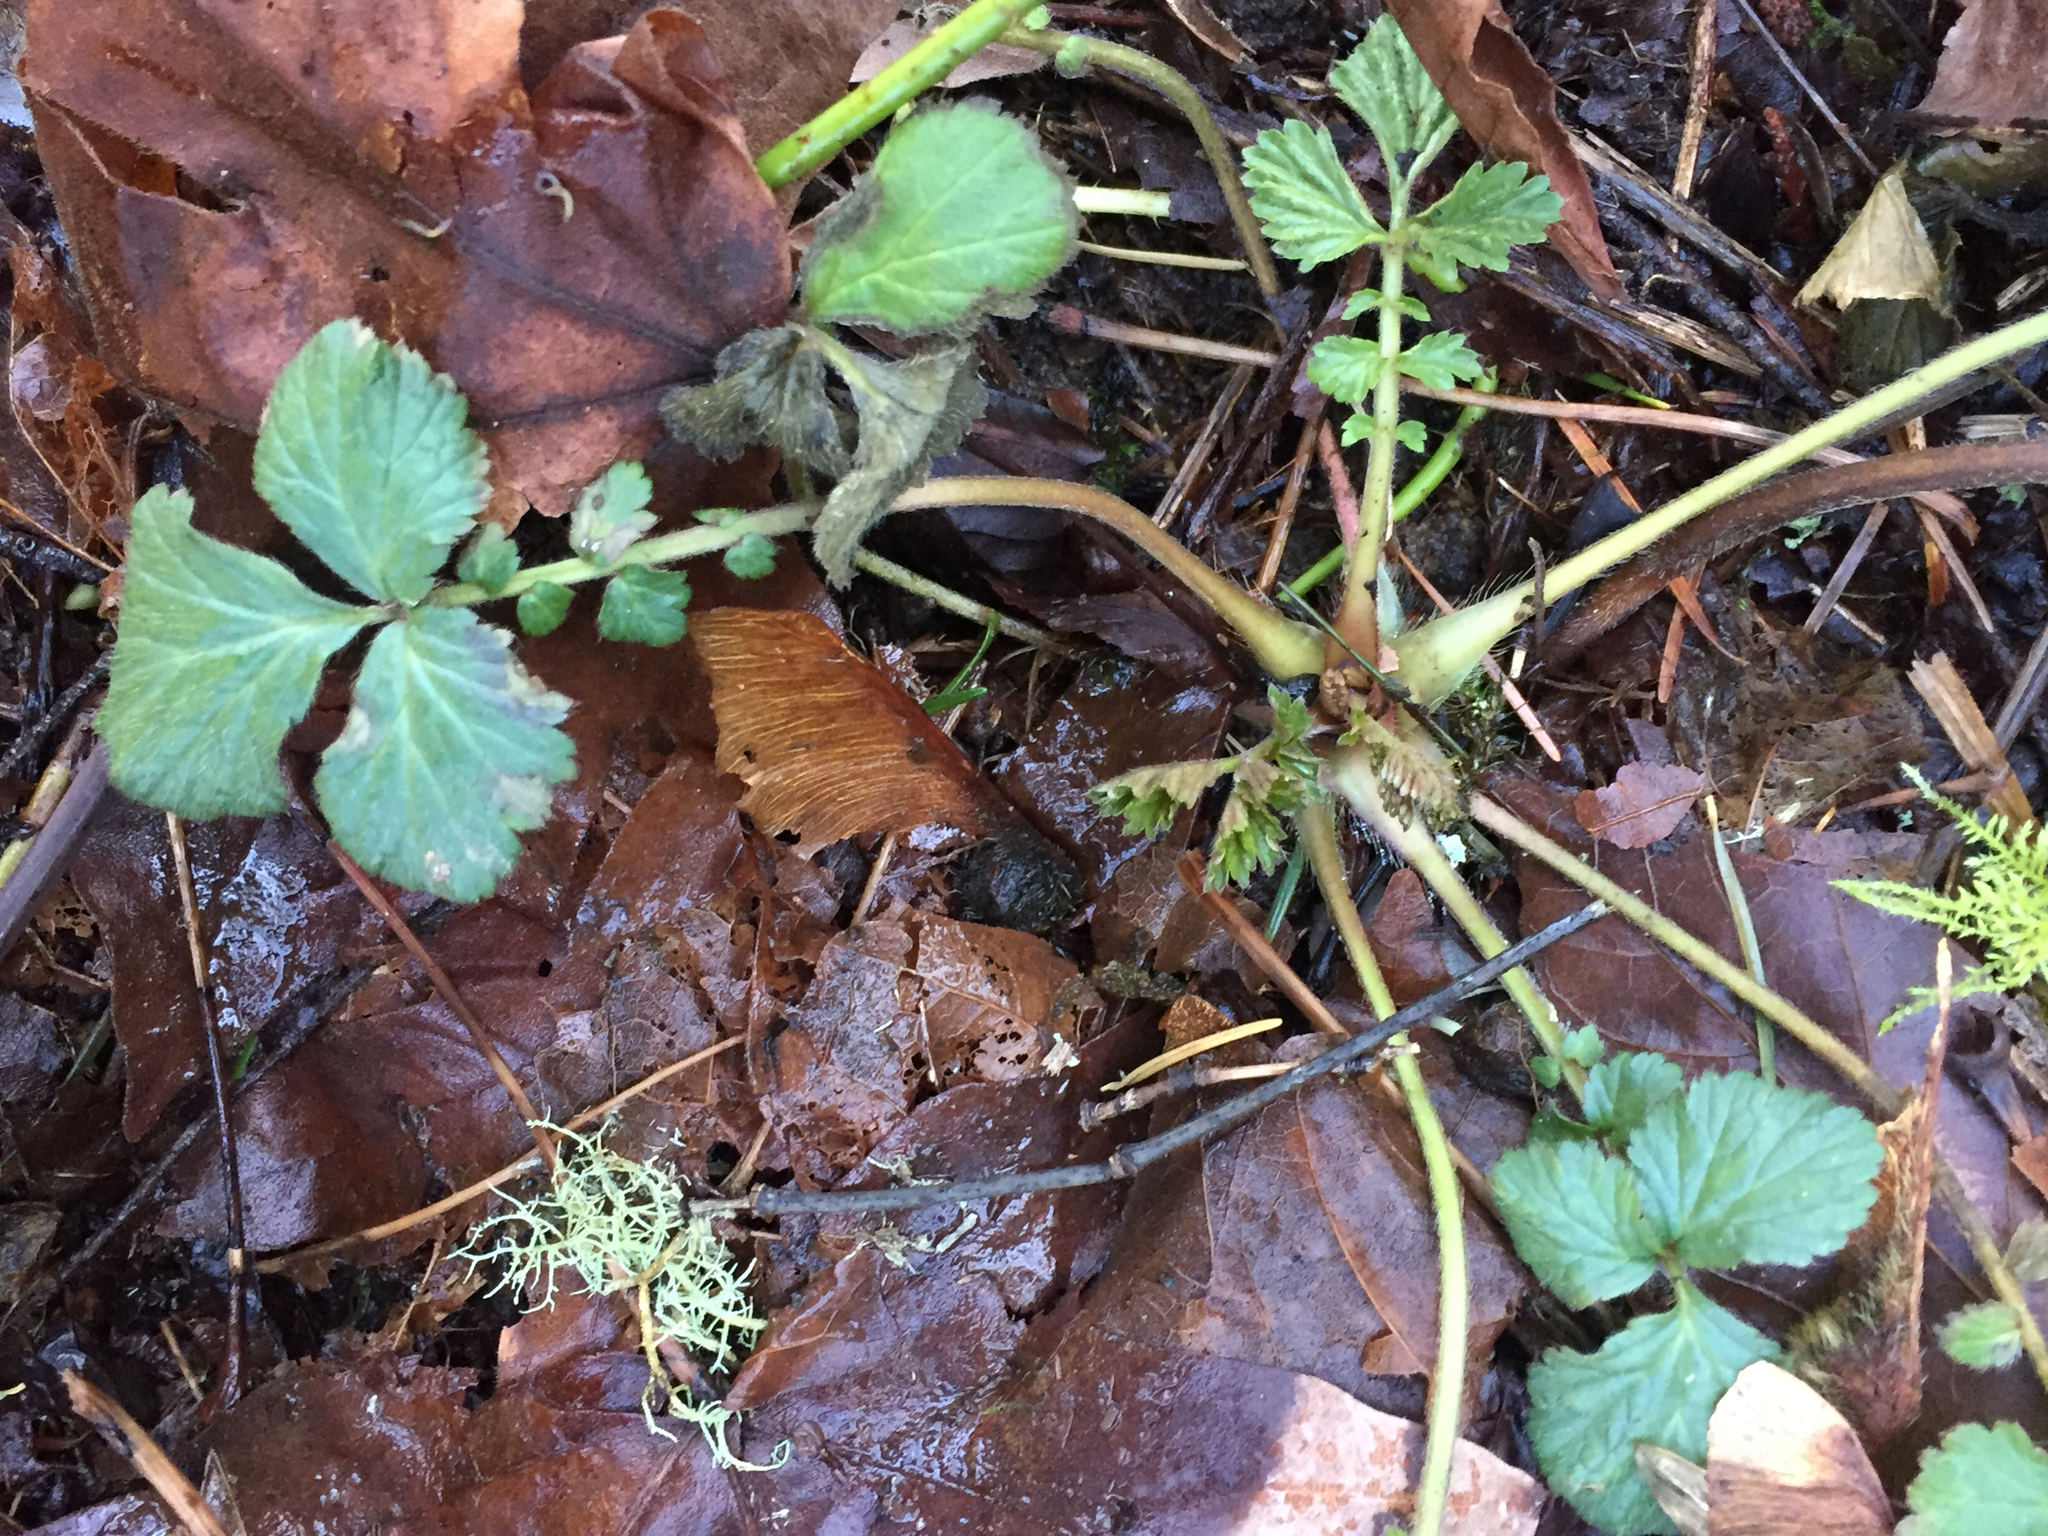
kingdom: Plantae
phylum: Tracheophyta
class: Magnoliopsida
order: Rosales
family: Rosaceae
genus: Geum
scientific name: Geum urbanum
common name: Wood avens
